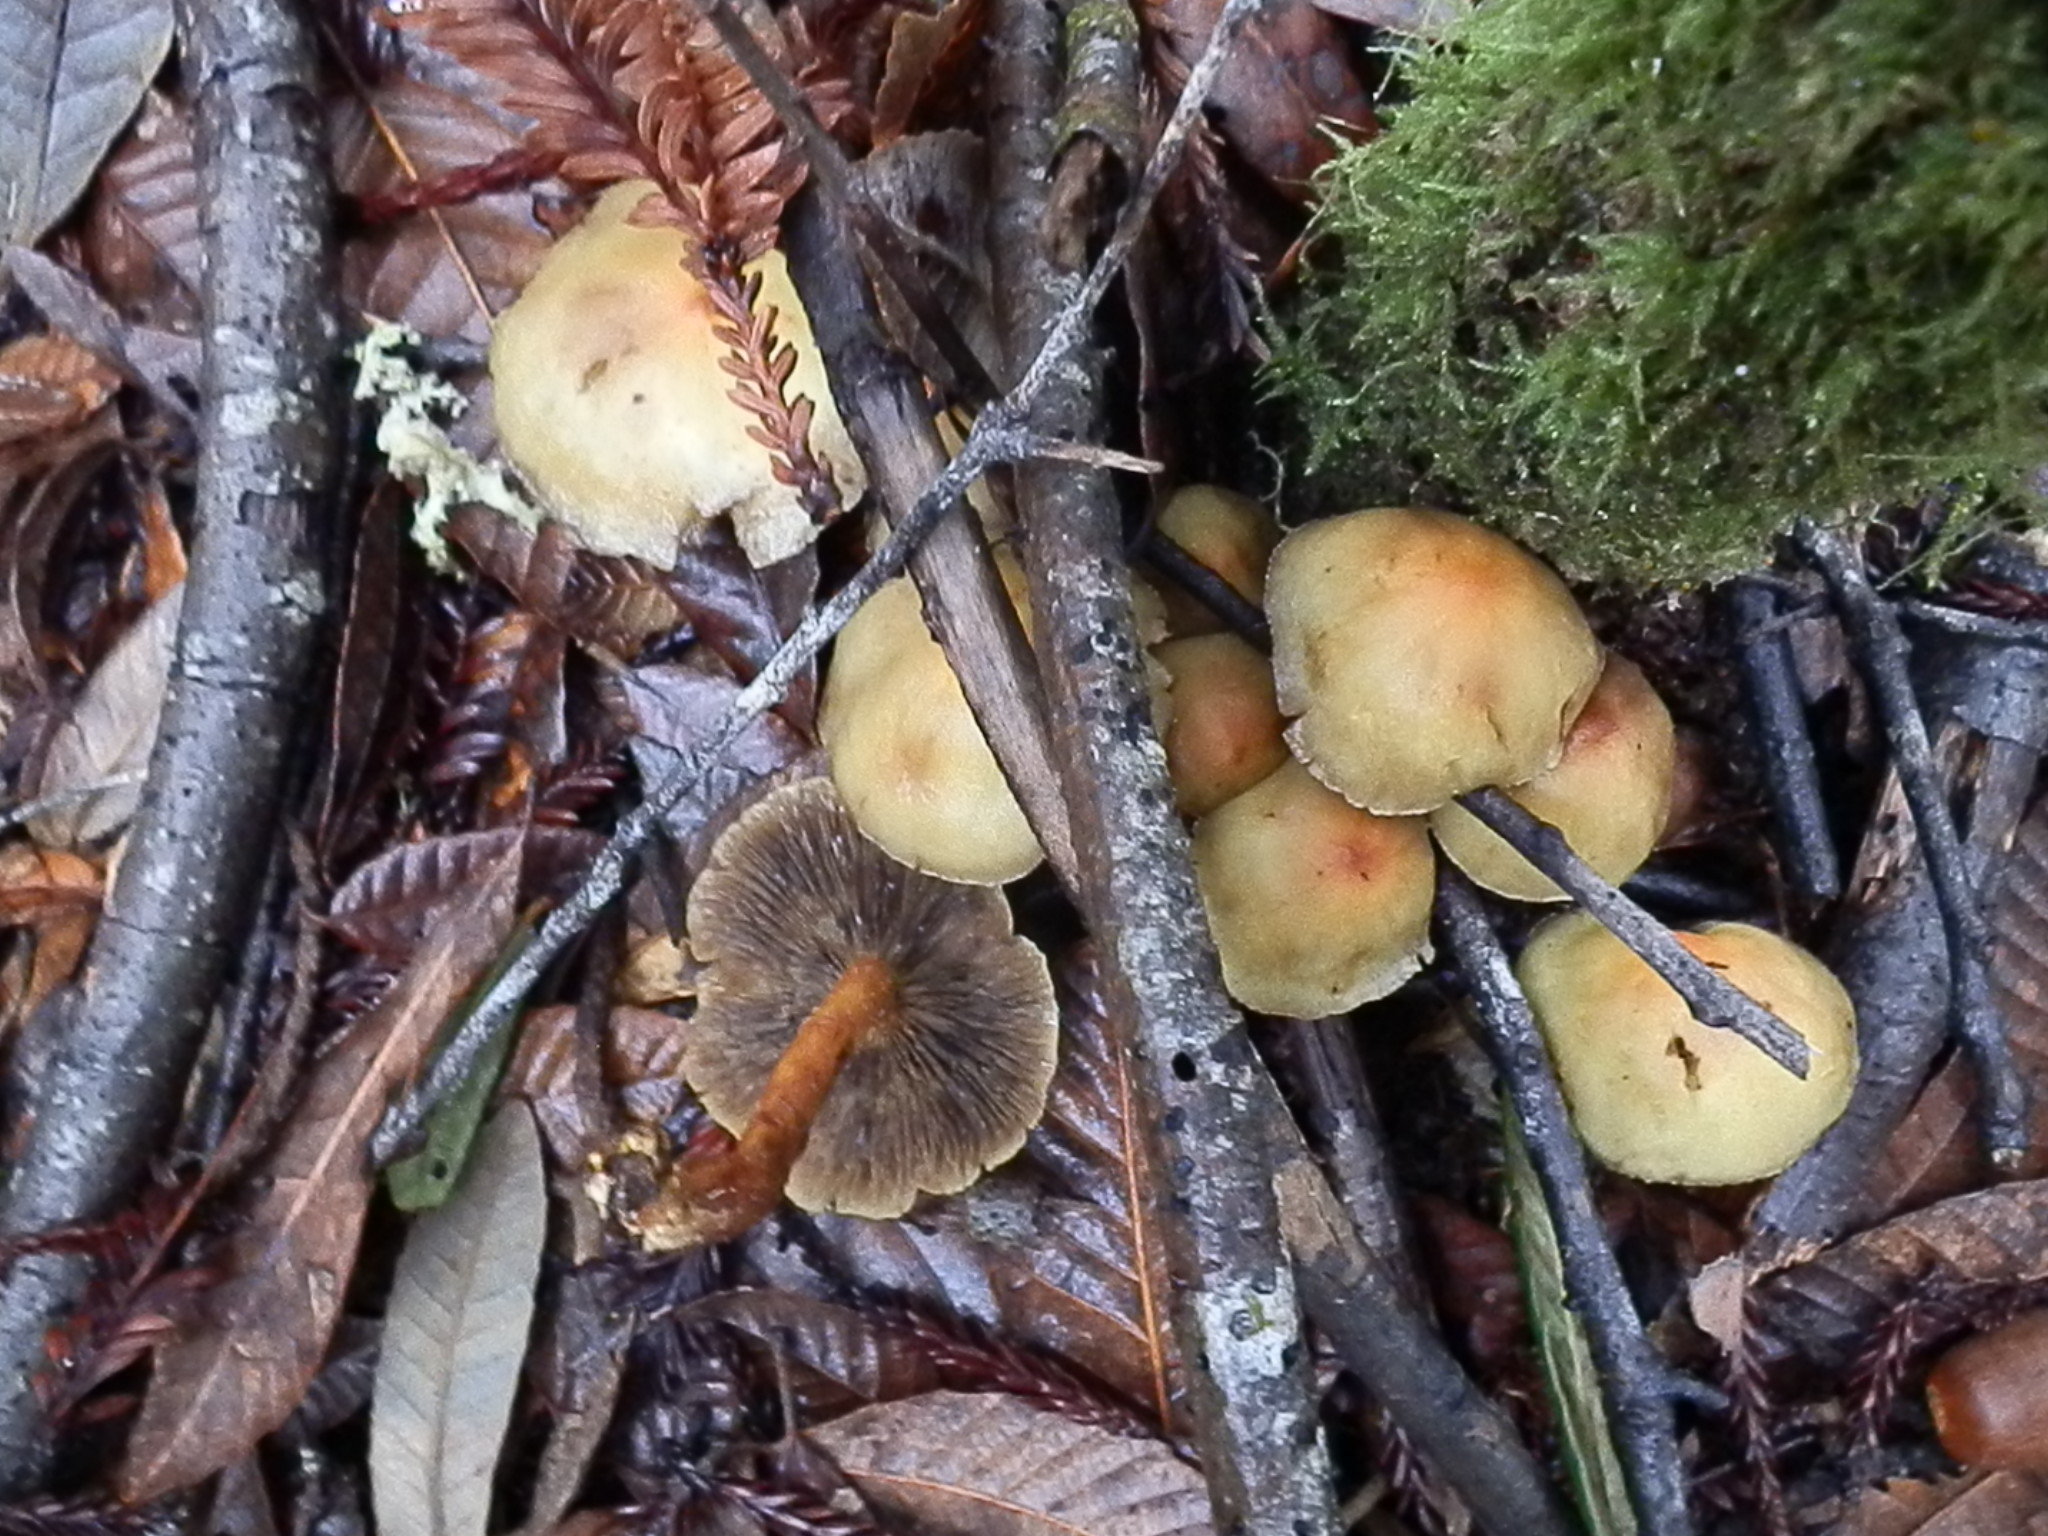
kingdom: Fungi
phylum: Basidiomycota
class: Agaricomycetes
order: Agaricales
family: Strophariaceae
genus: Hypholoma
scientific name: Hypholoma fasciculare
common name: Sulphur tuft
